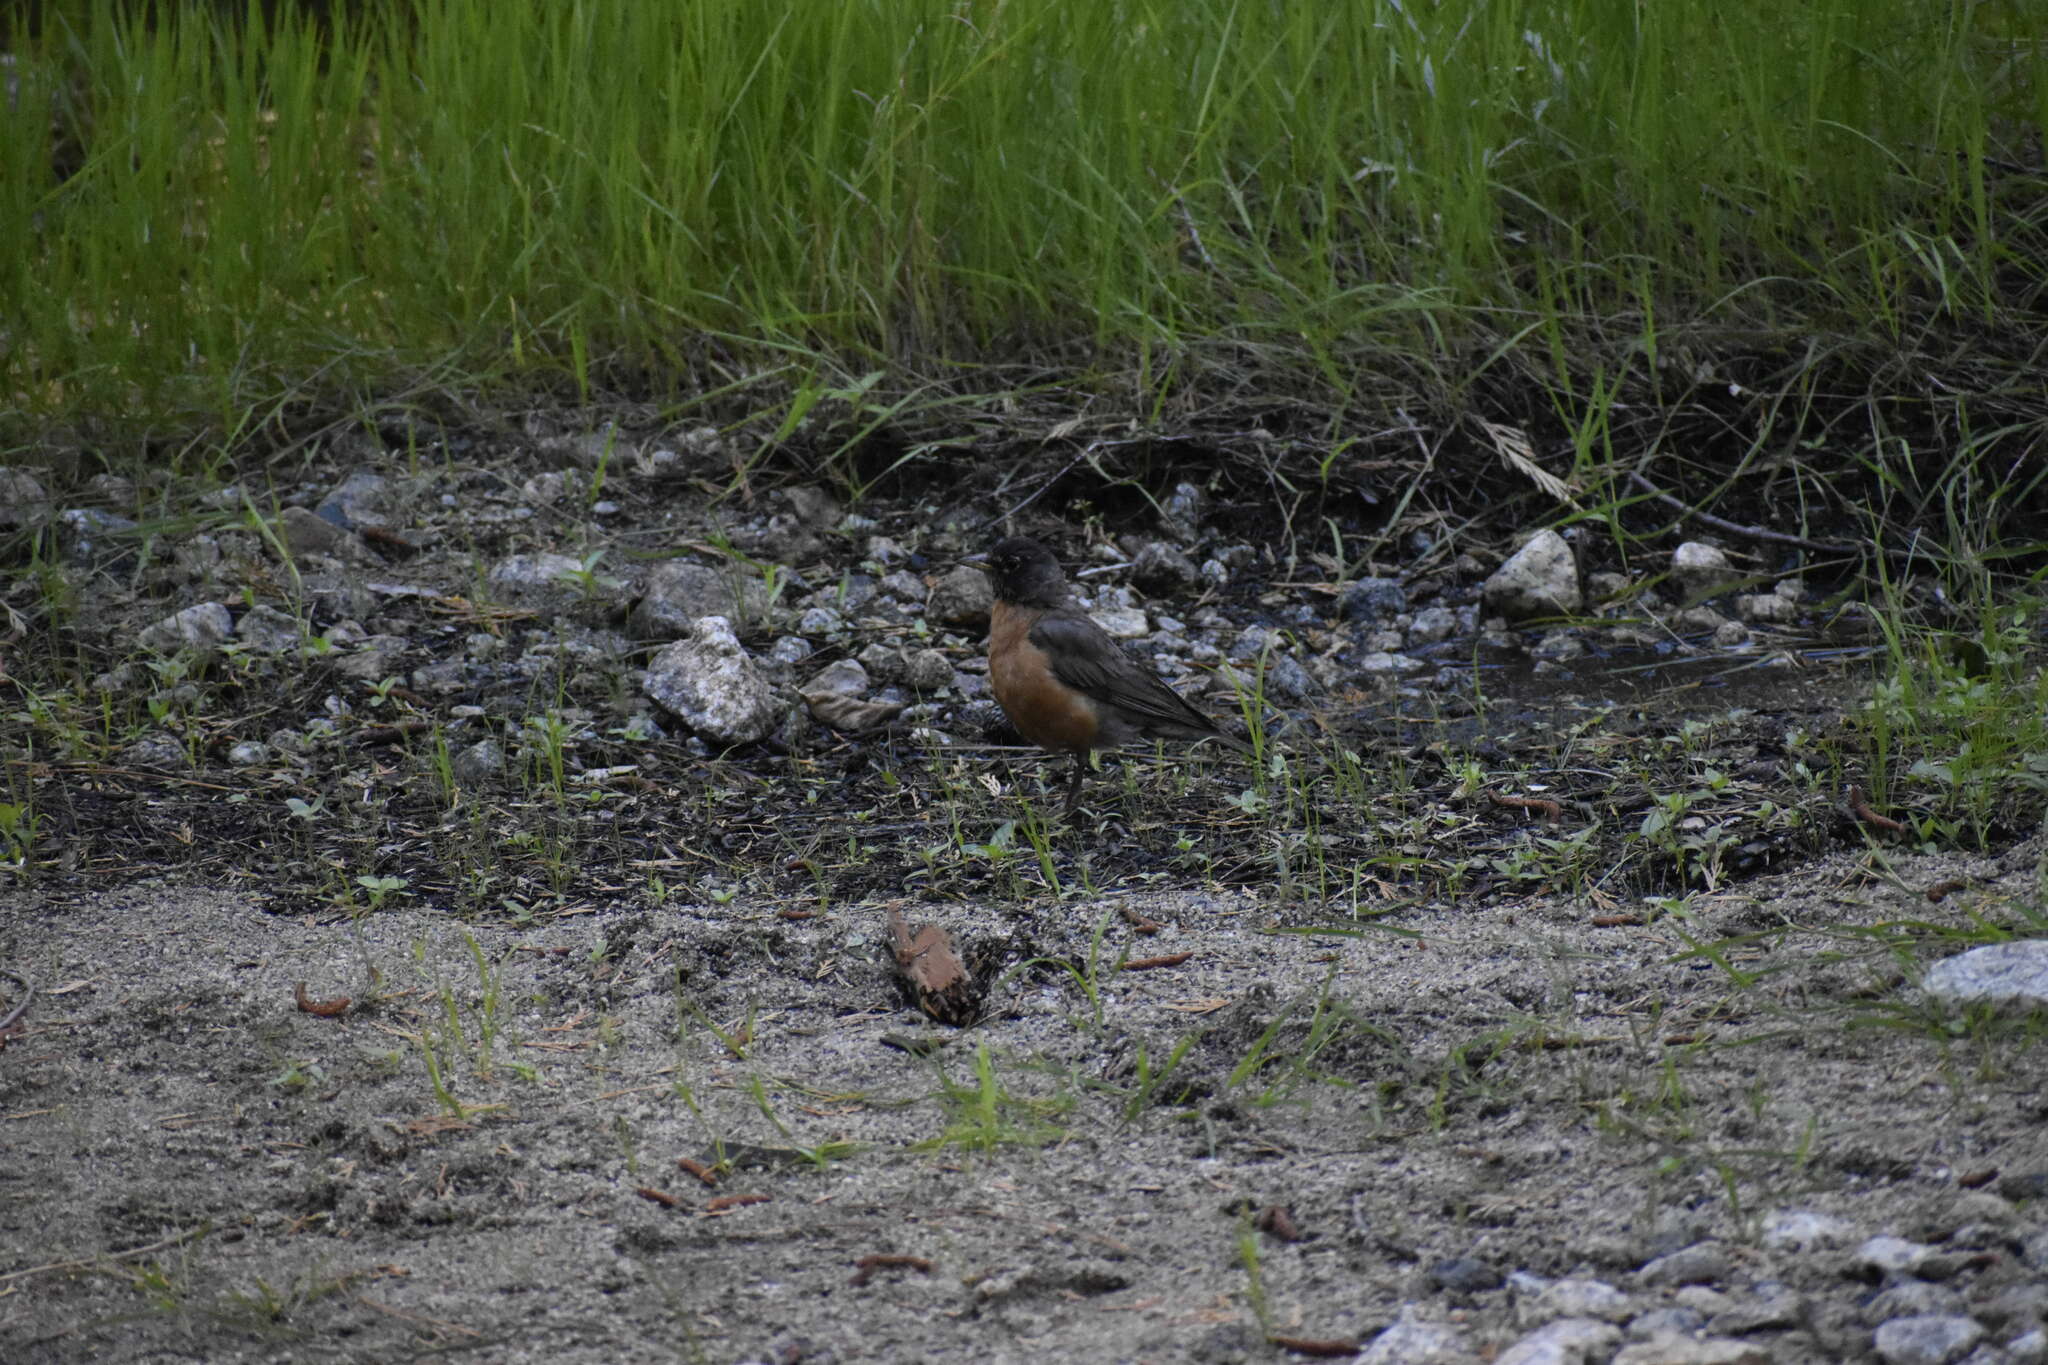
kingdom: Animalia
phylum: Chordata
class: Aves
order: Passeriformes
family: Turdidae
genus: Turdus
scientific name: Turdus migratorius
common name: American robin
